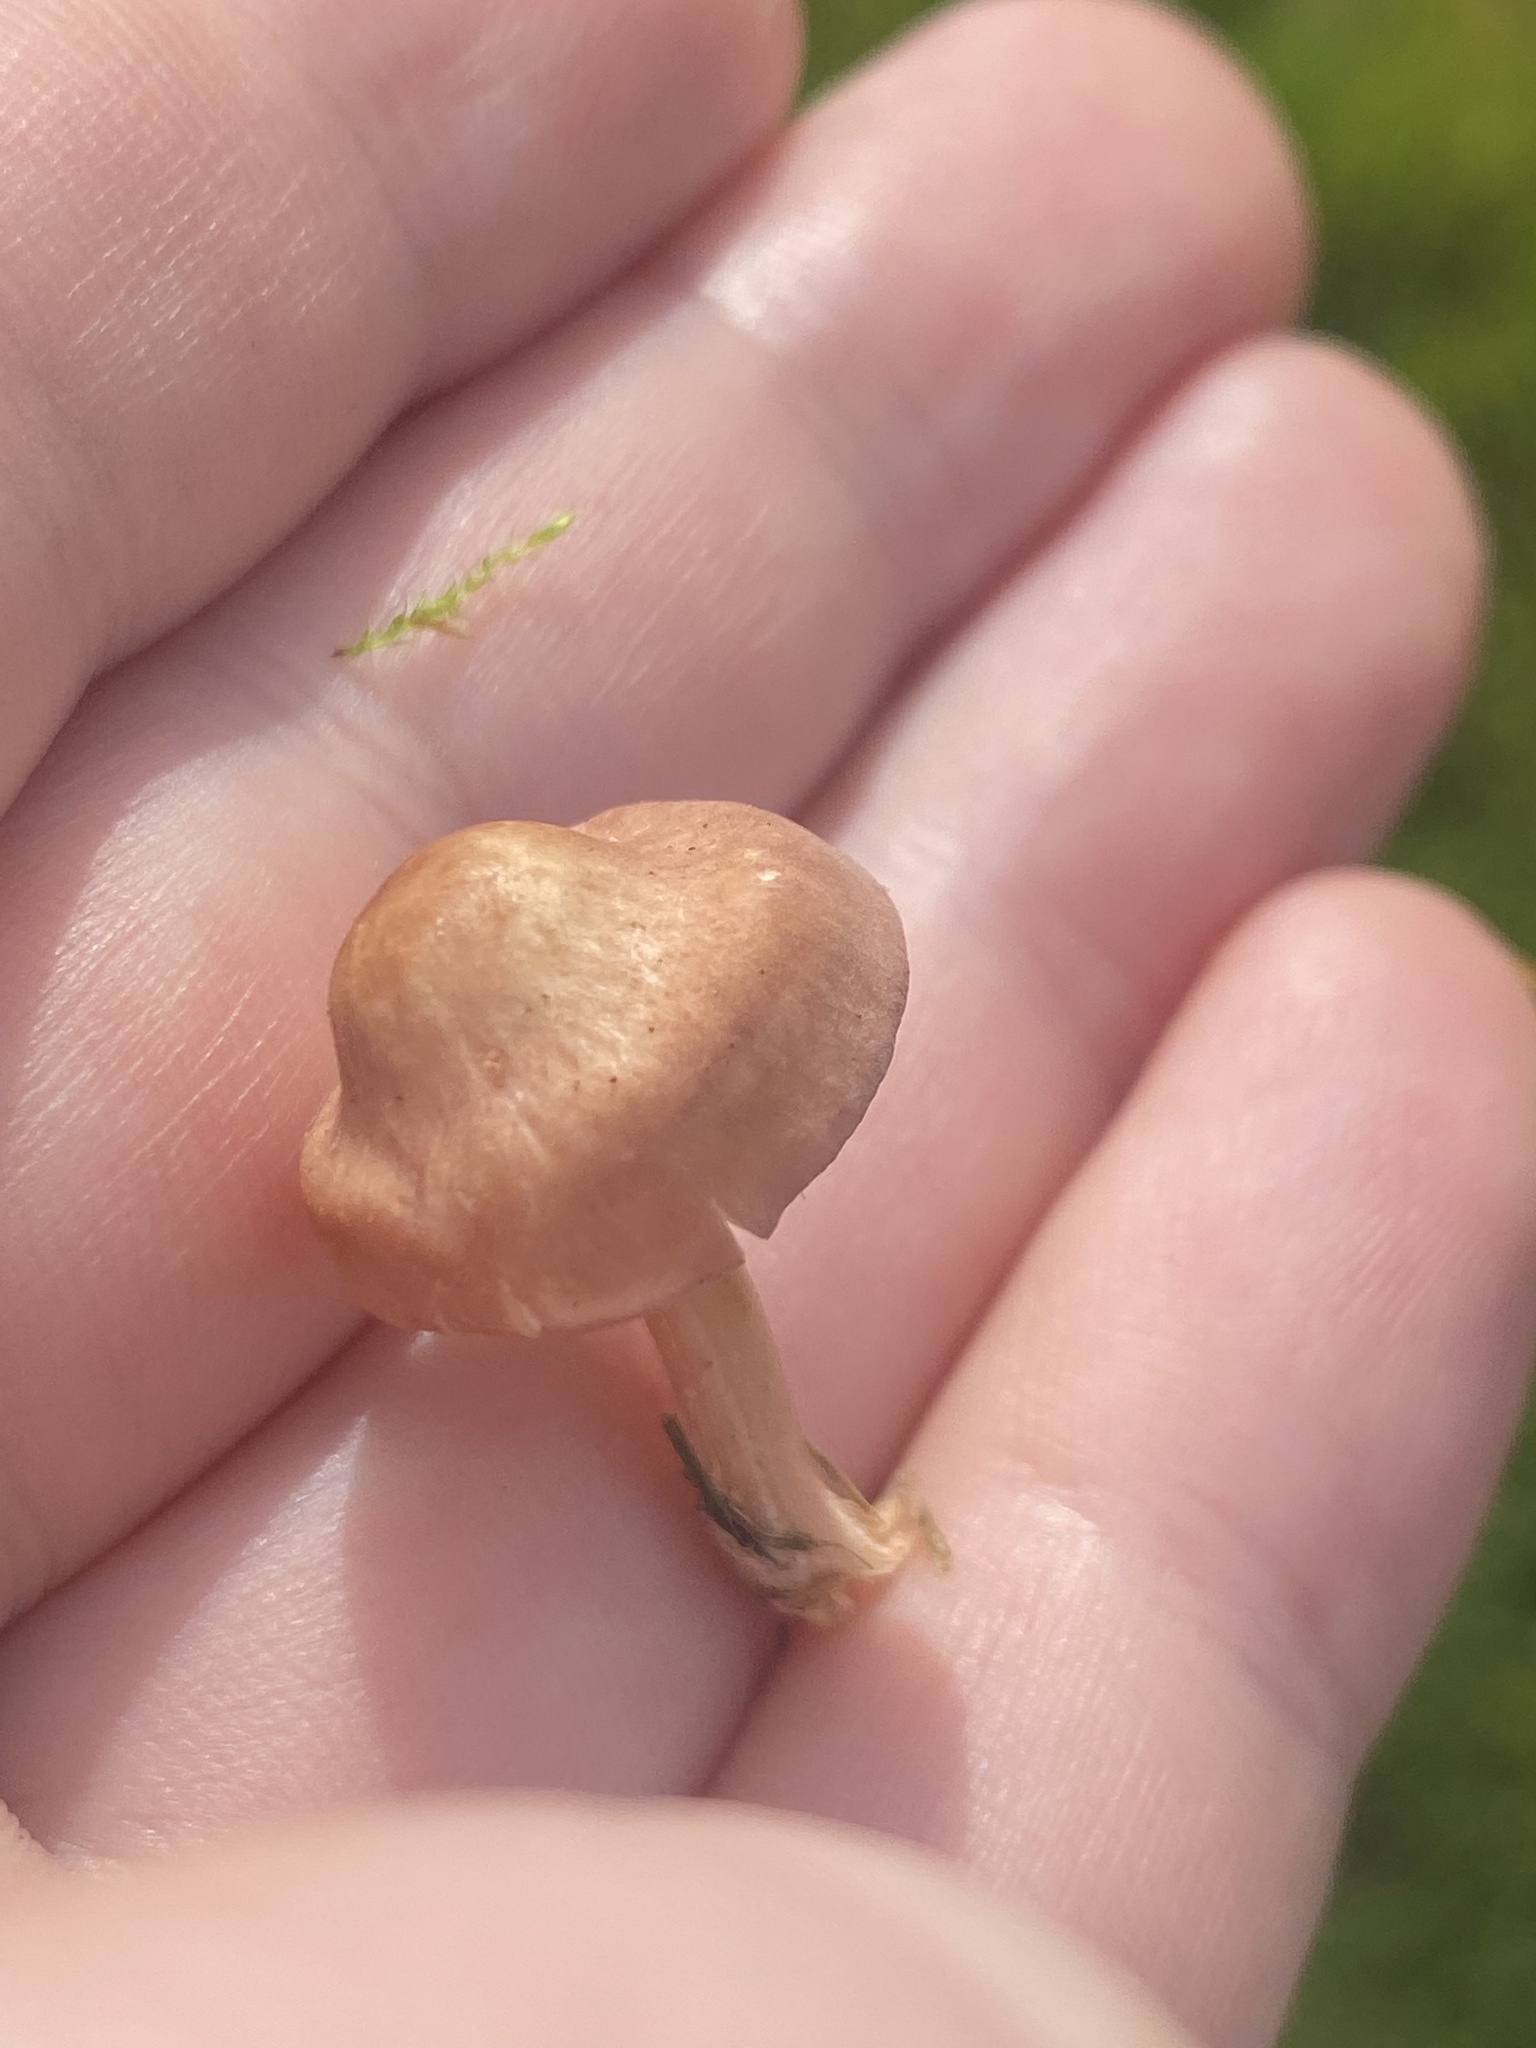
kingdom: Fungi
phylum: Basidiomycota
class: Agaricomycetes
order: Agaricales
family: Lyophyllaceae
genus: Calocybe
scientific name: Calocybe carnea
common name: Pink domecap
